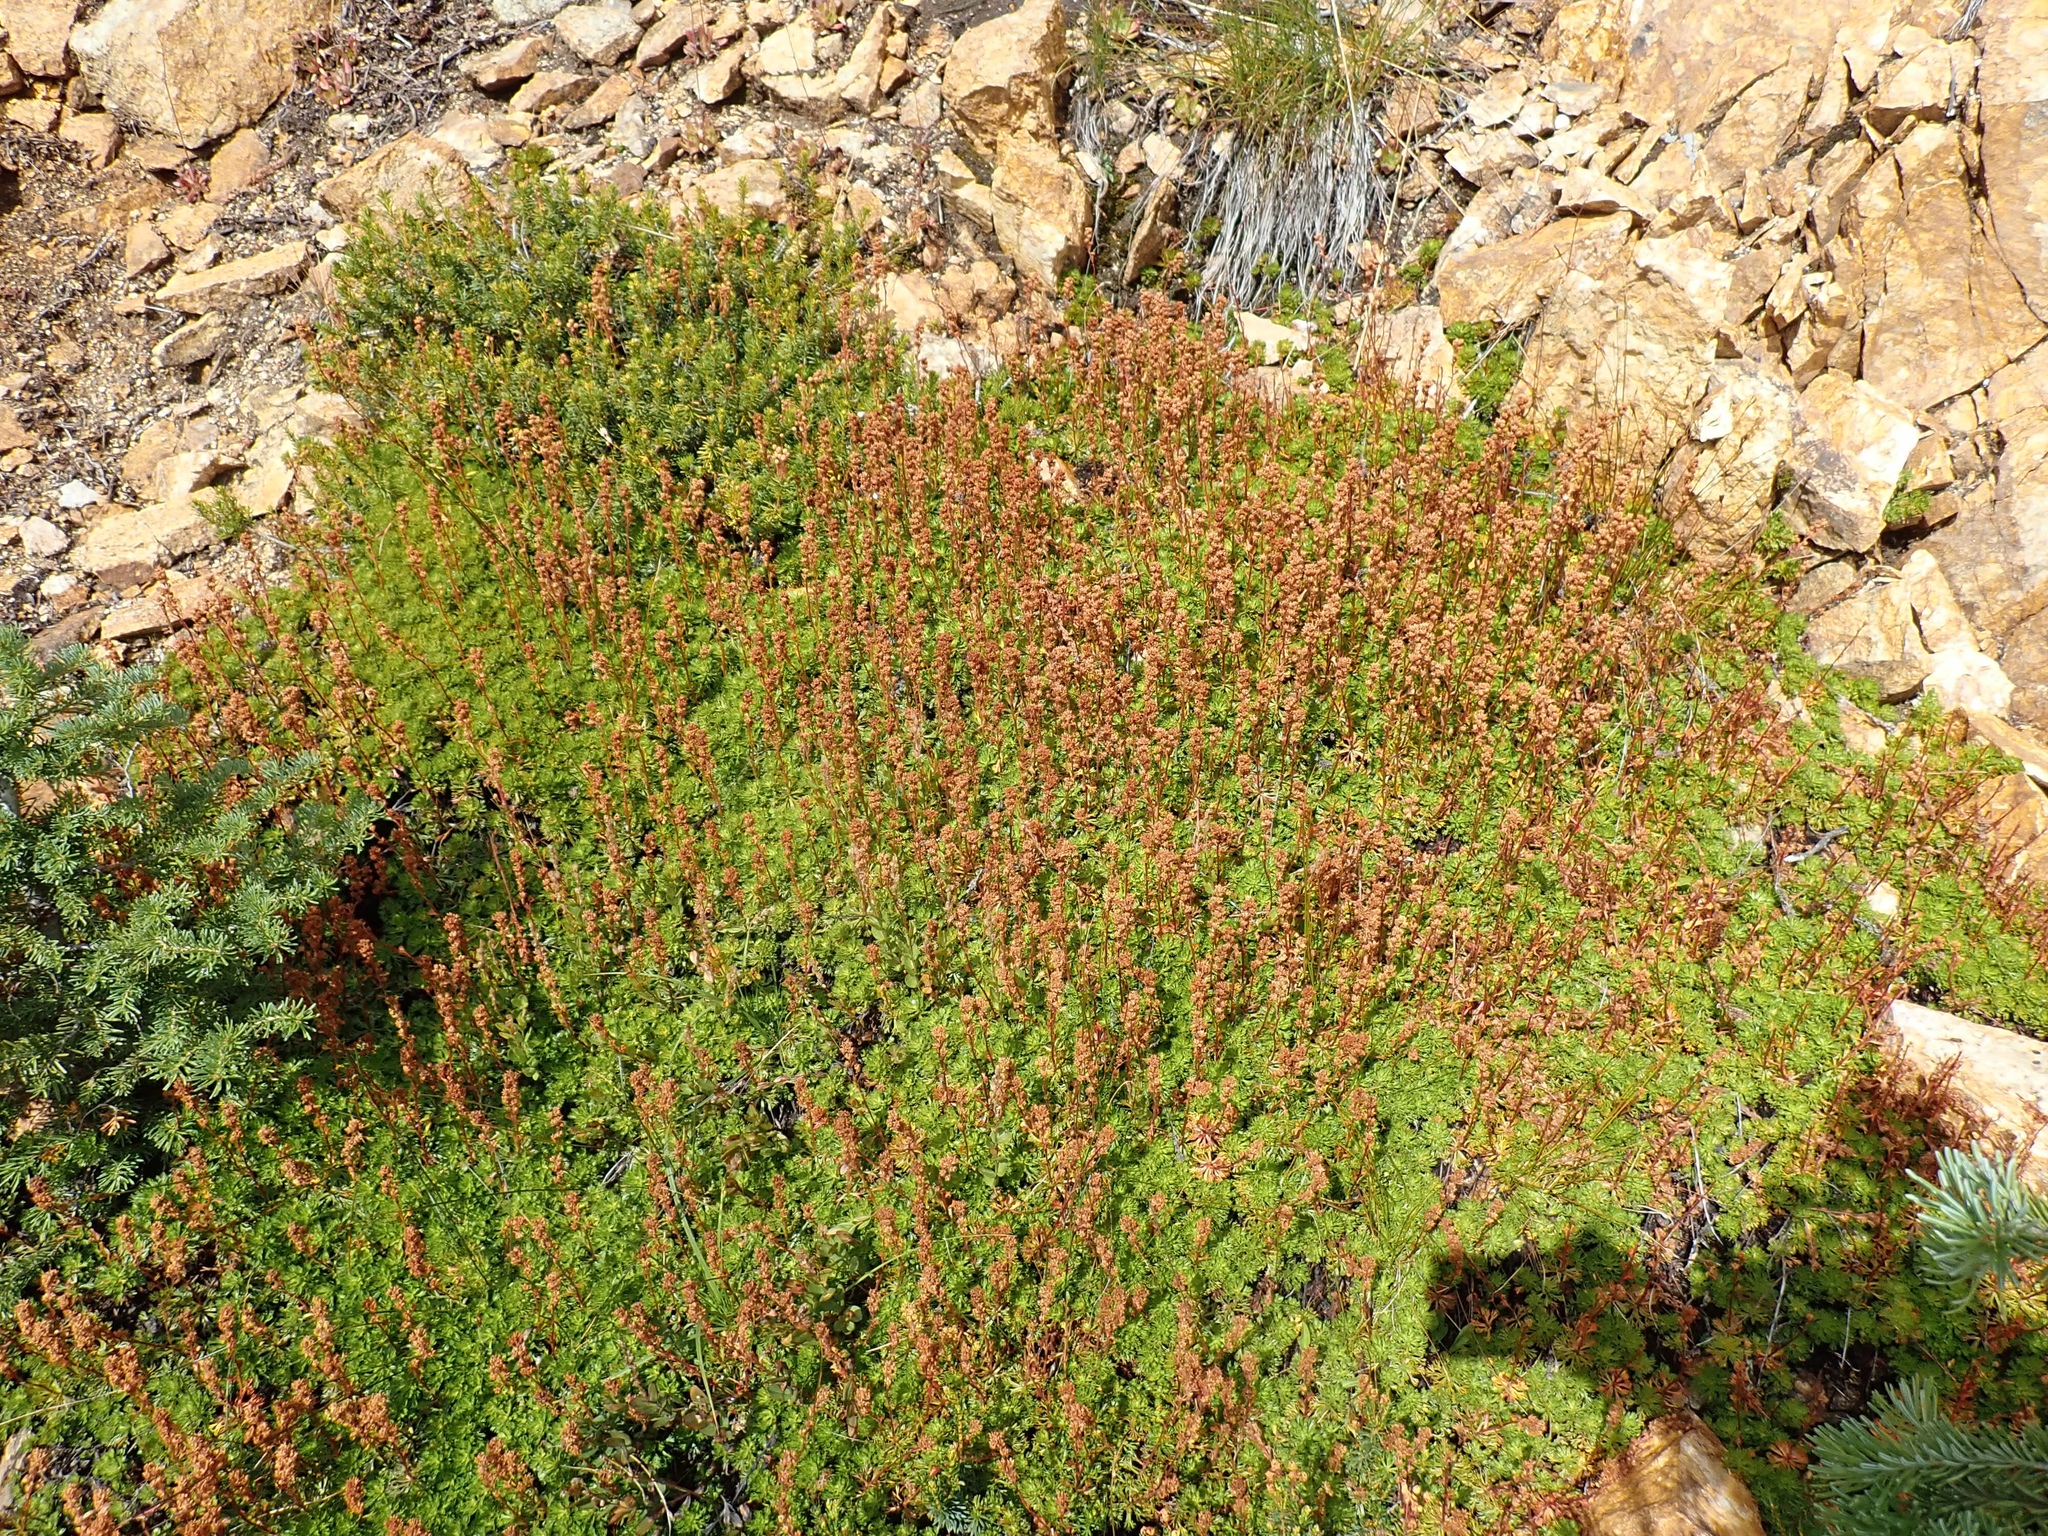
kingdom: Plantae
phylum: Tracheophyta
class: Magnoliopsida
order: Rosales
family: Rosaceae
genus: Luetkea
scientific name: Luetkea pectinata
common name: Partridgefoot
